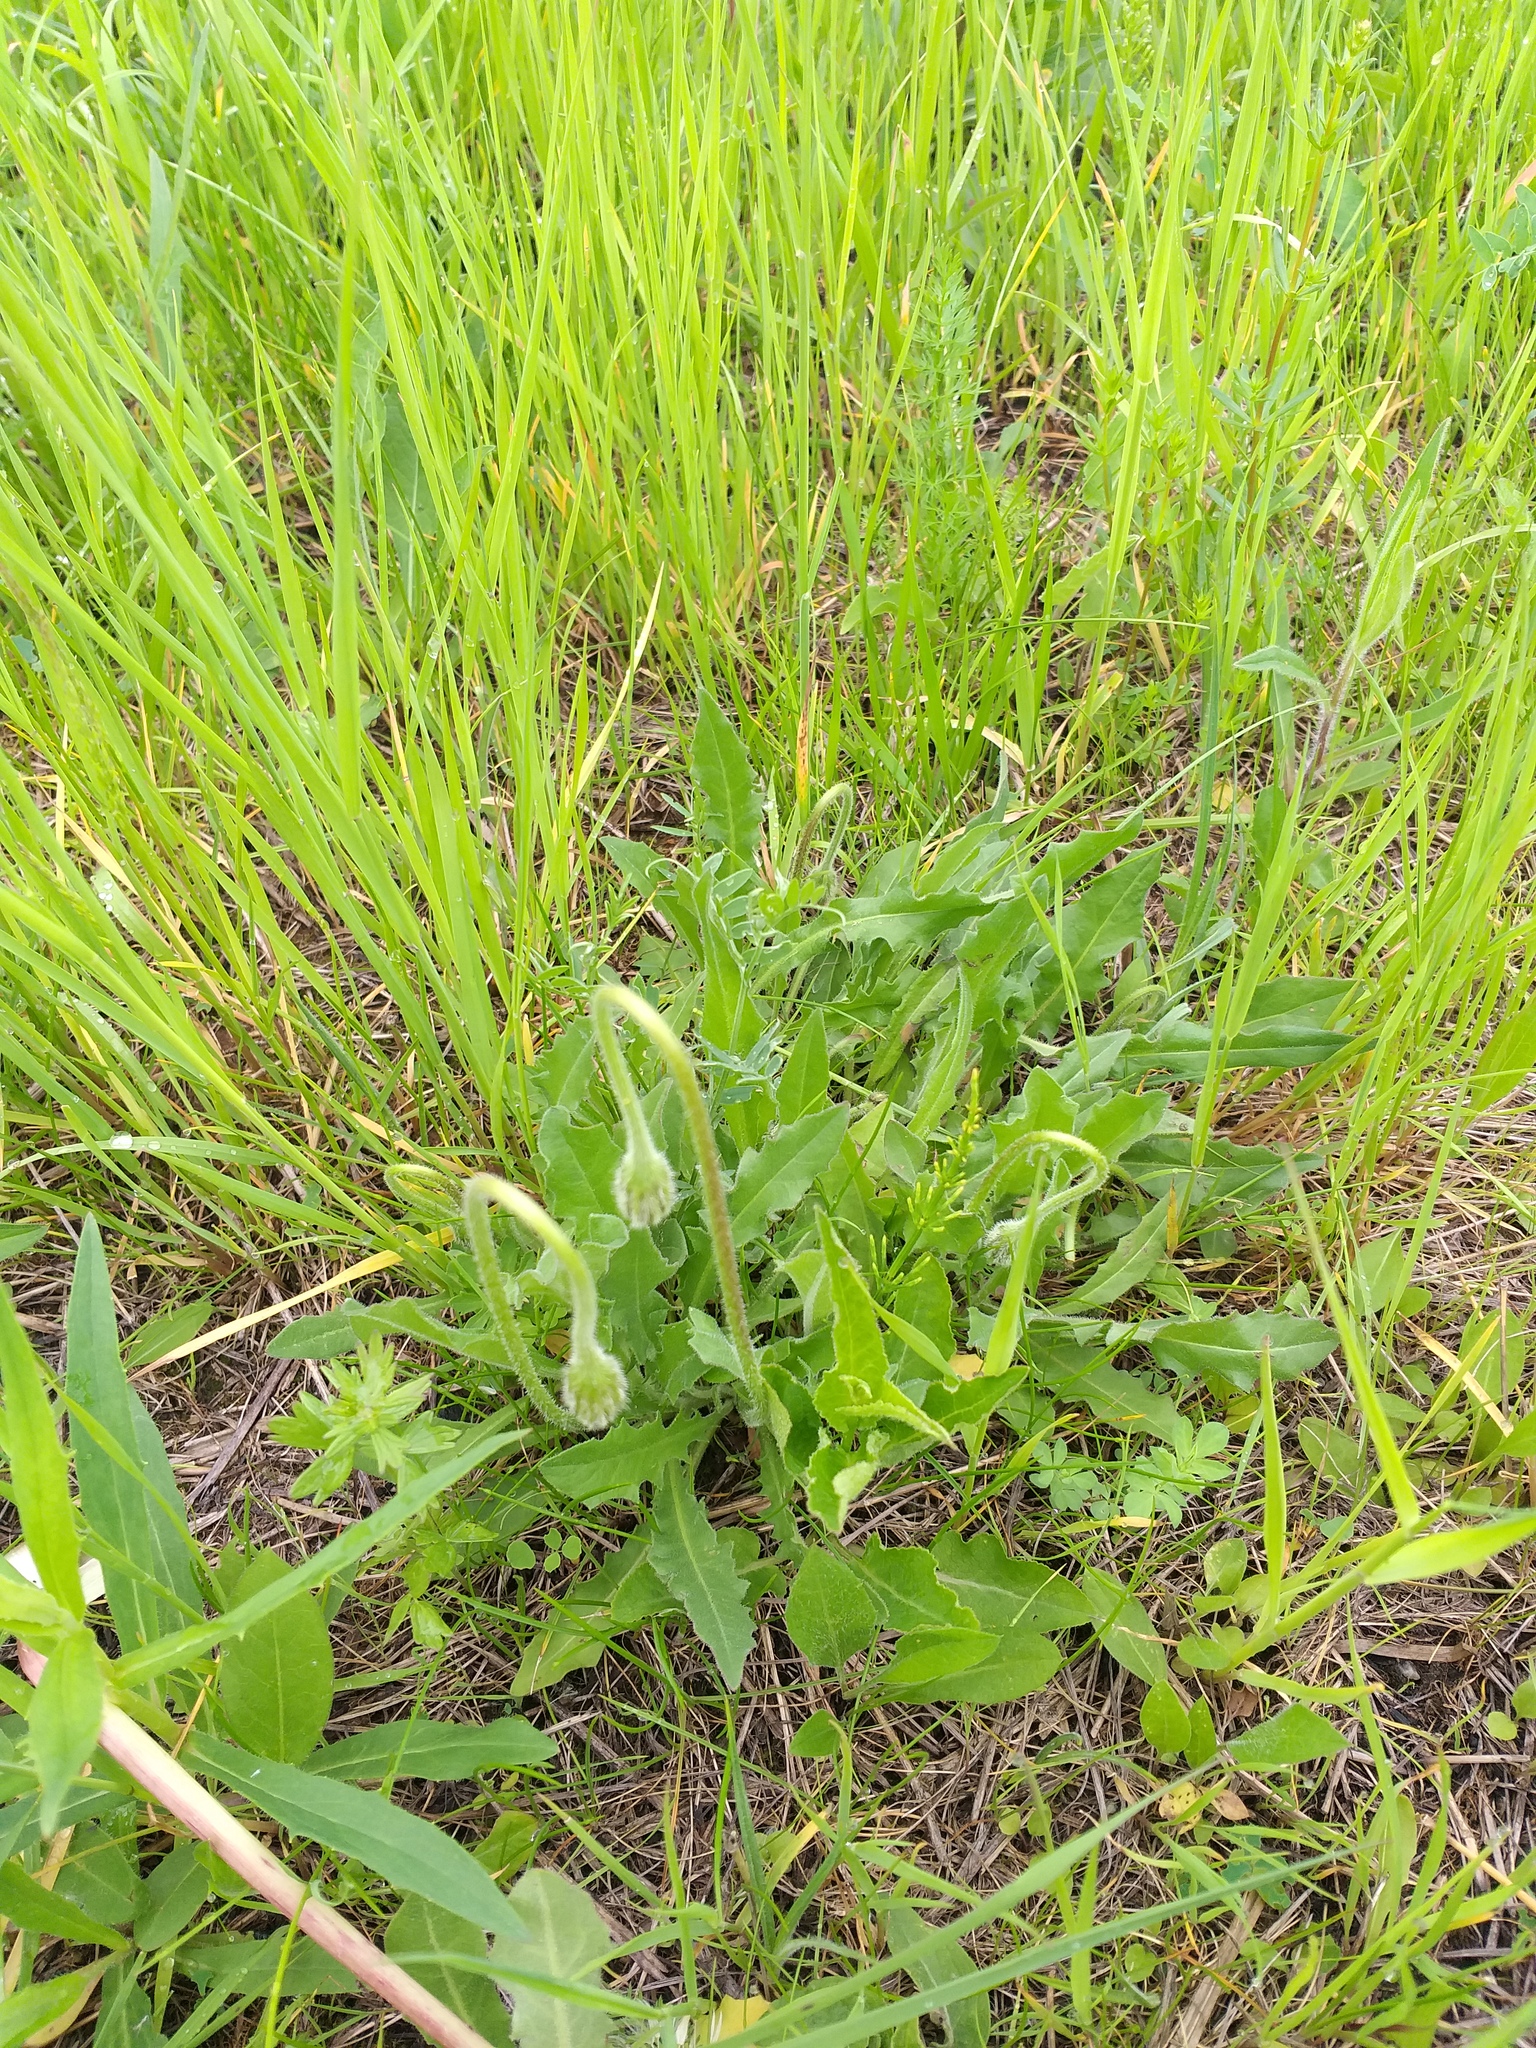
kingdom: Plantae
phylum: Tracheophyta
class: Magnoliopsida
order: Asterales
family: Asteraceae
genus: Leontodon
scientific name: Leontodon hispidus
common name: Rough hawkbit
